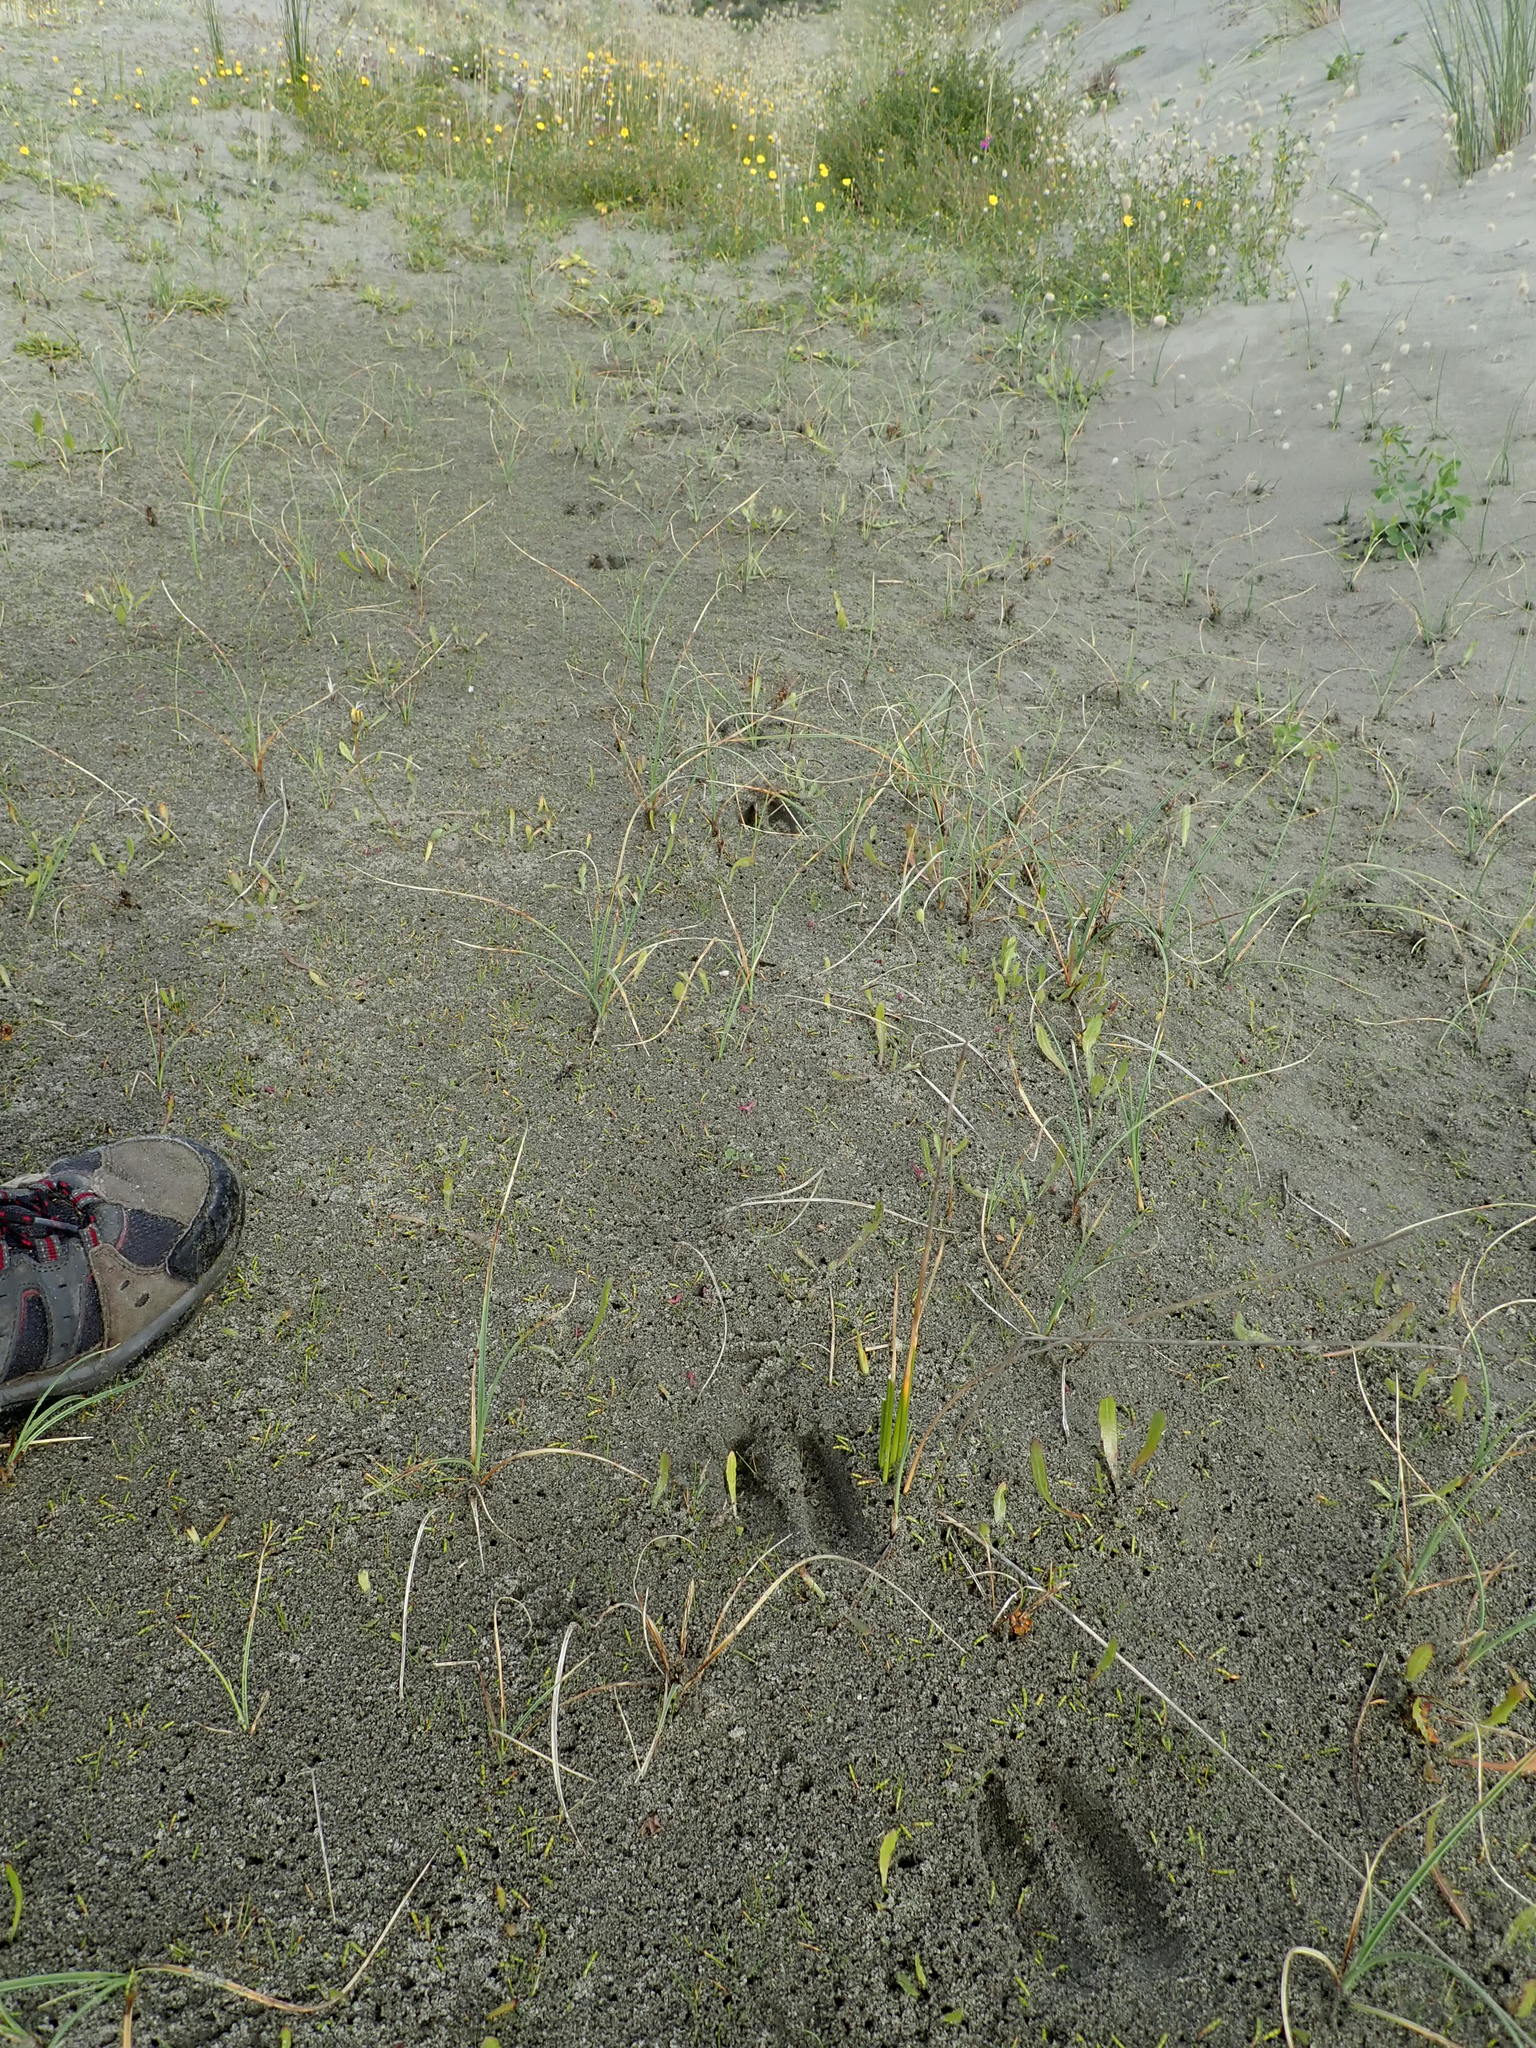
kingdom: Animalia
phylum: Chordata
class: Mammalia
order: Artiodactyla
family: Cervidae
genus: Rusa
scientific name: Rusa unicolor
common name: Sambar
